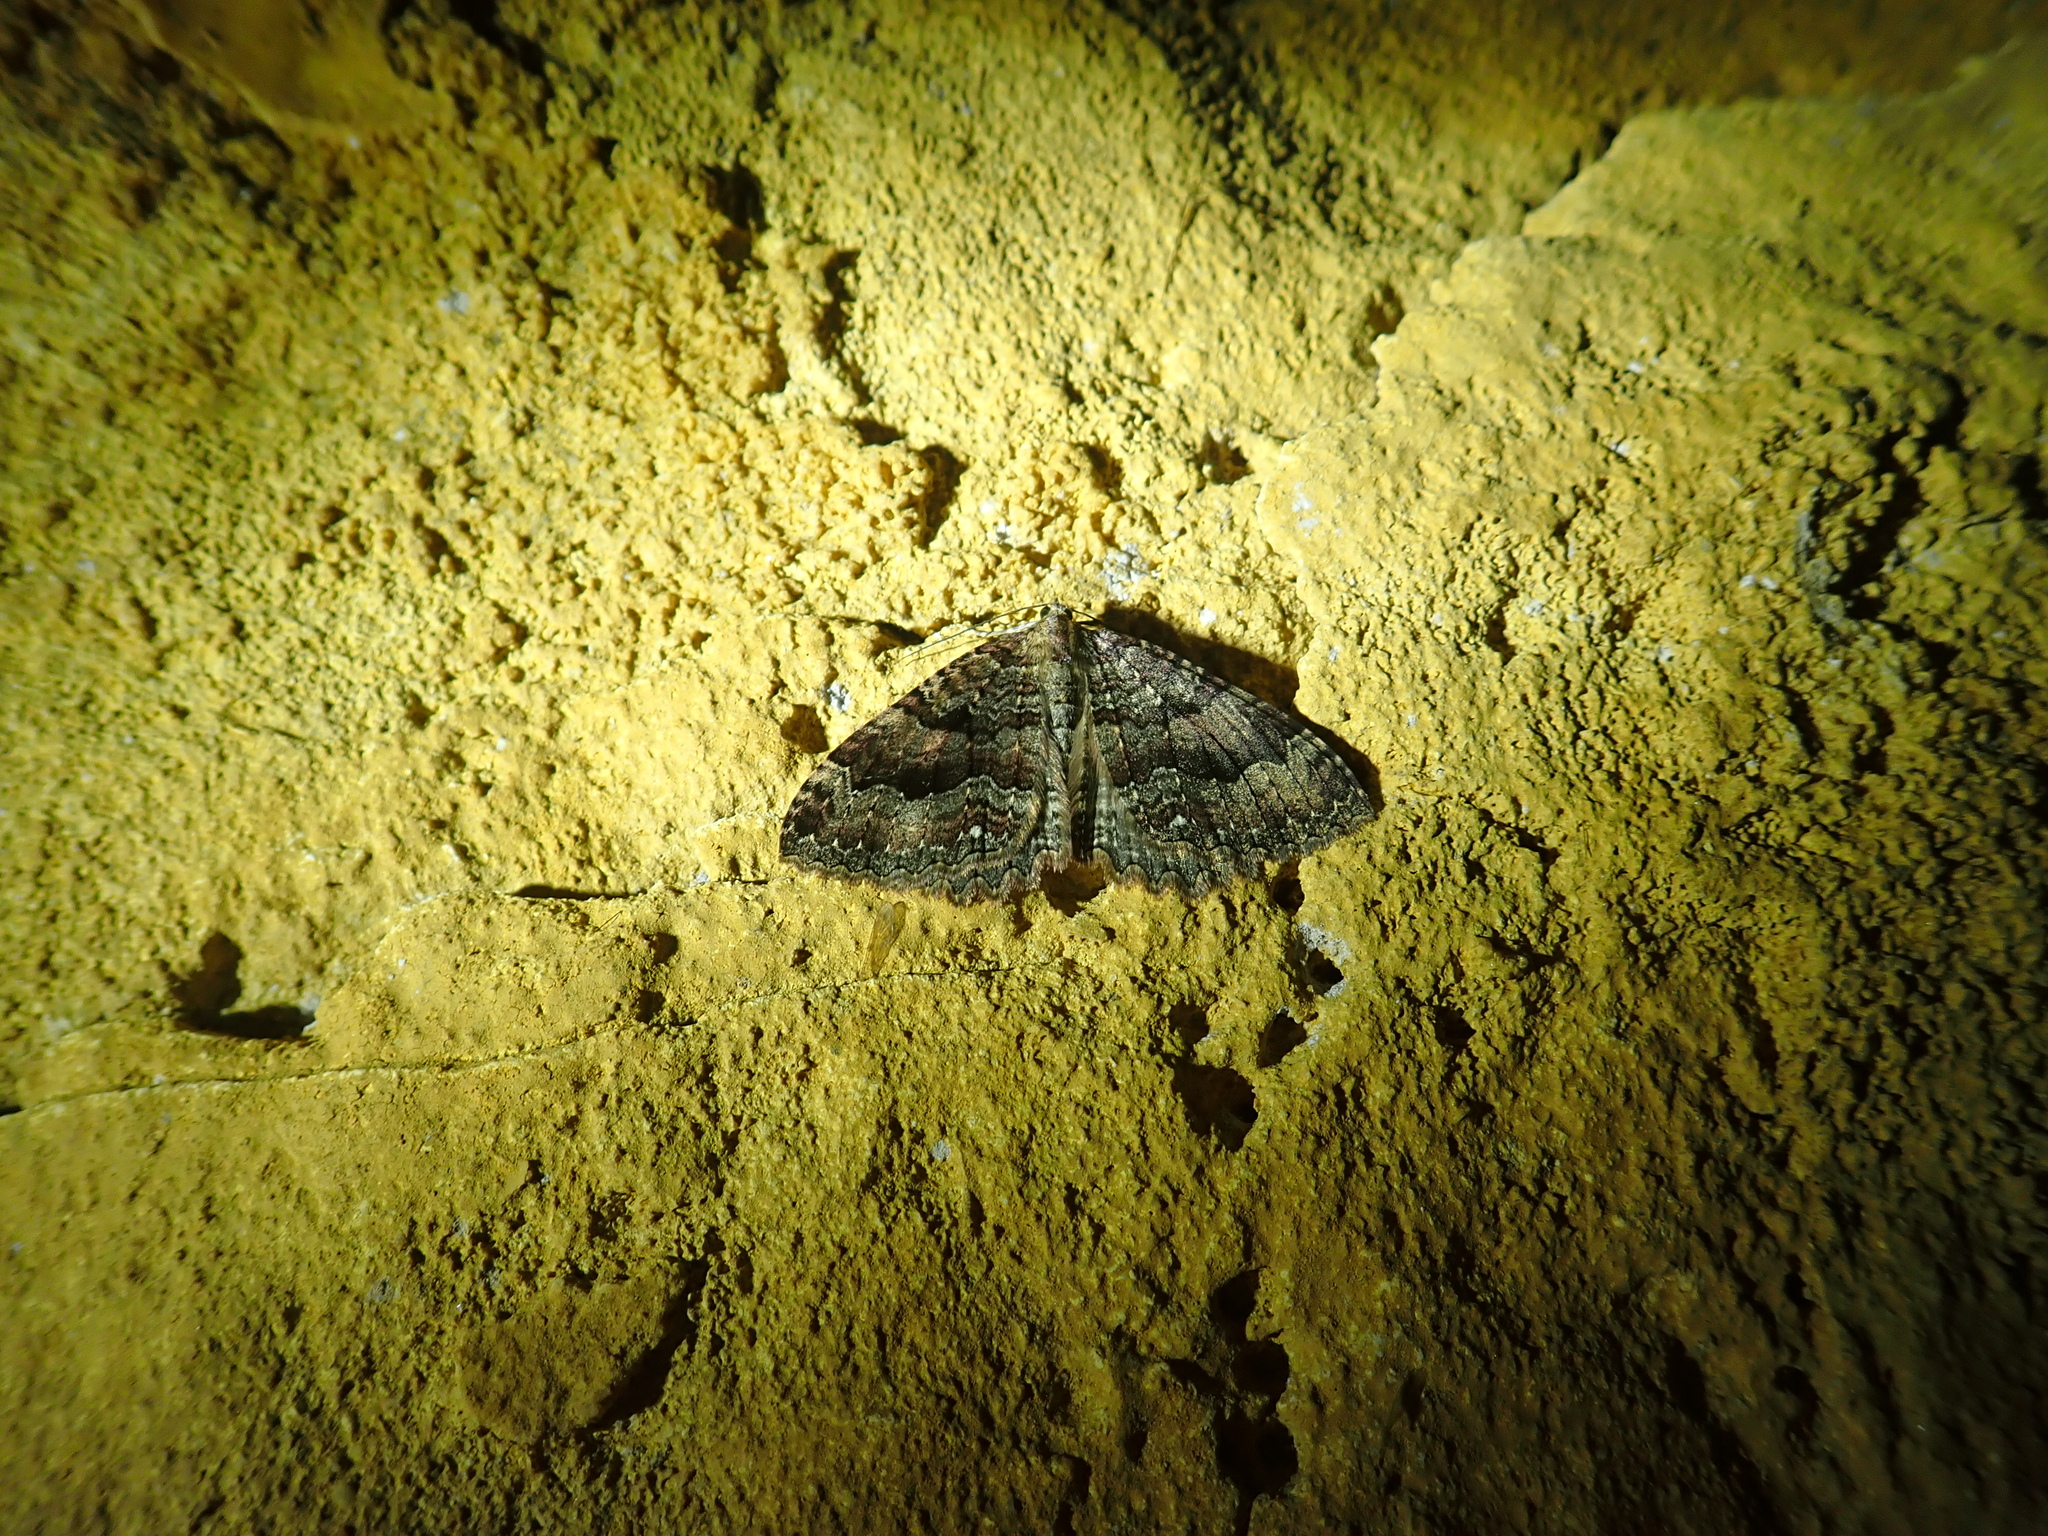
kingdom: Animalia
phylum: Arthropoda
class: Insecta
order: Lepidoptera
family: Geometridae
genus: Triphosa
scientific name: Triphosa dubitata
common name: Tissue
